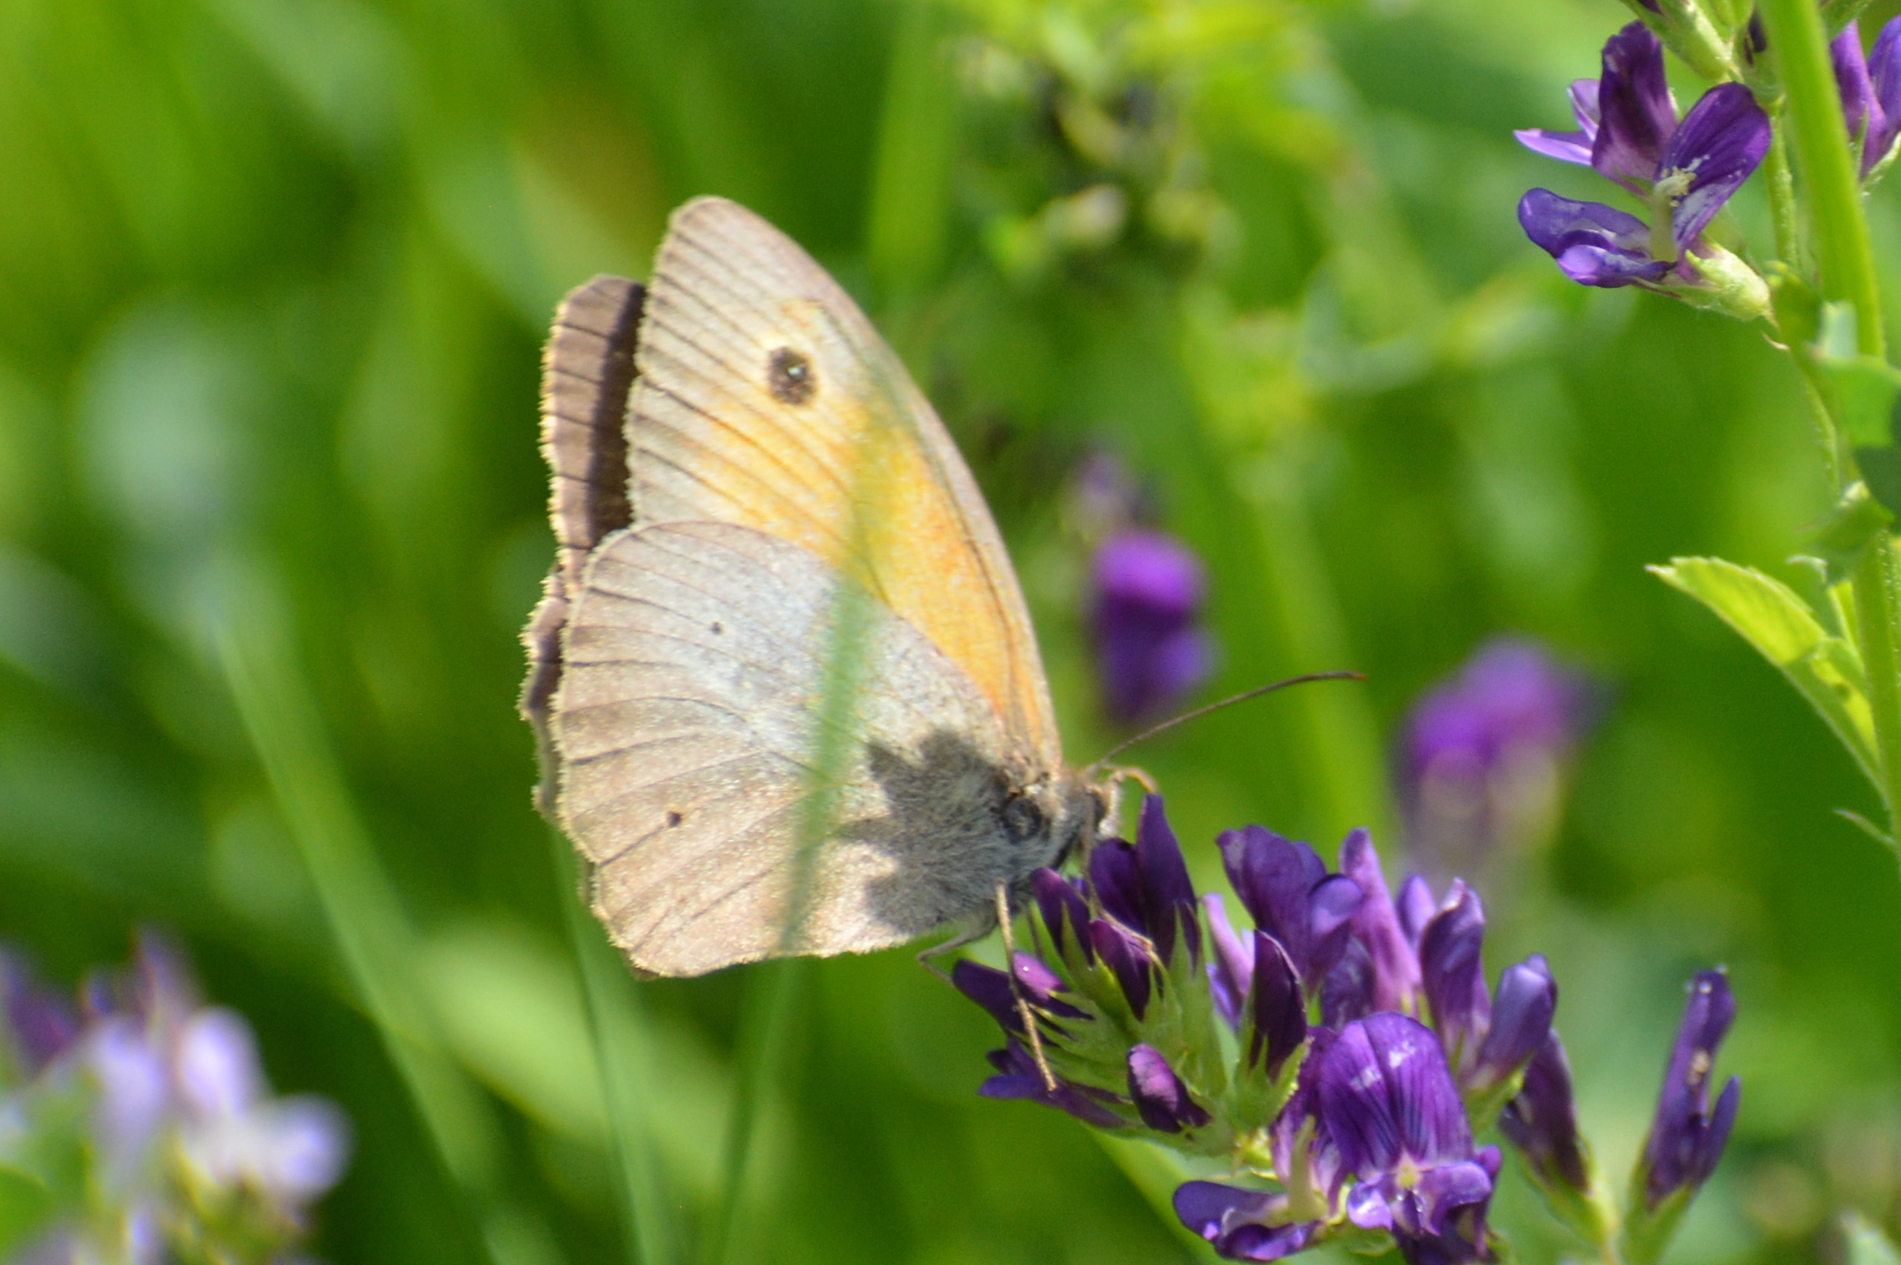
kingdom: Animalia
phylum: Arthropoda
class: Insecta
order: Lepidoptera
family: Nymphalidae
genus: Maniola
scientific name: Maniola jurtina
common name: Meadow brown
